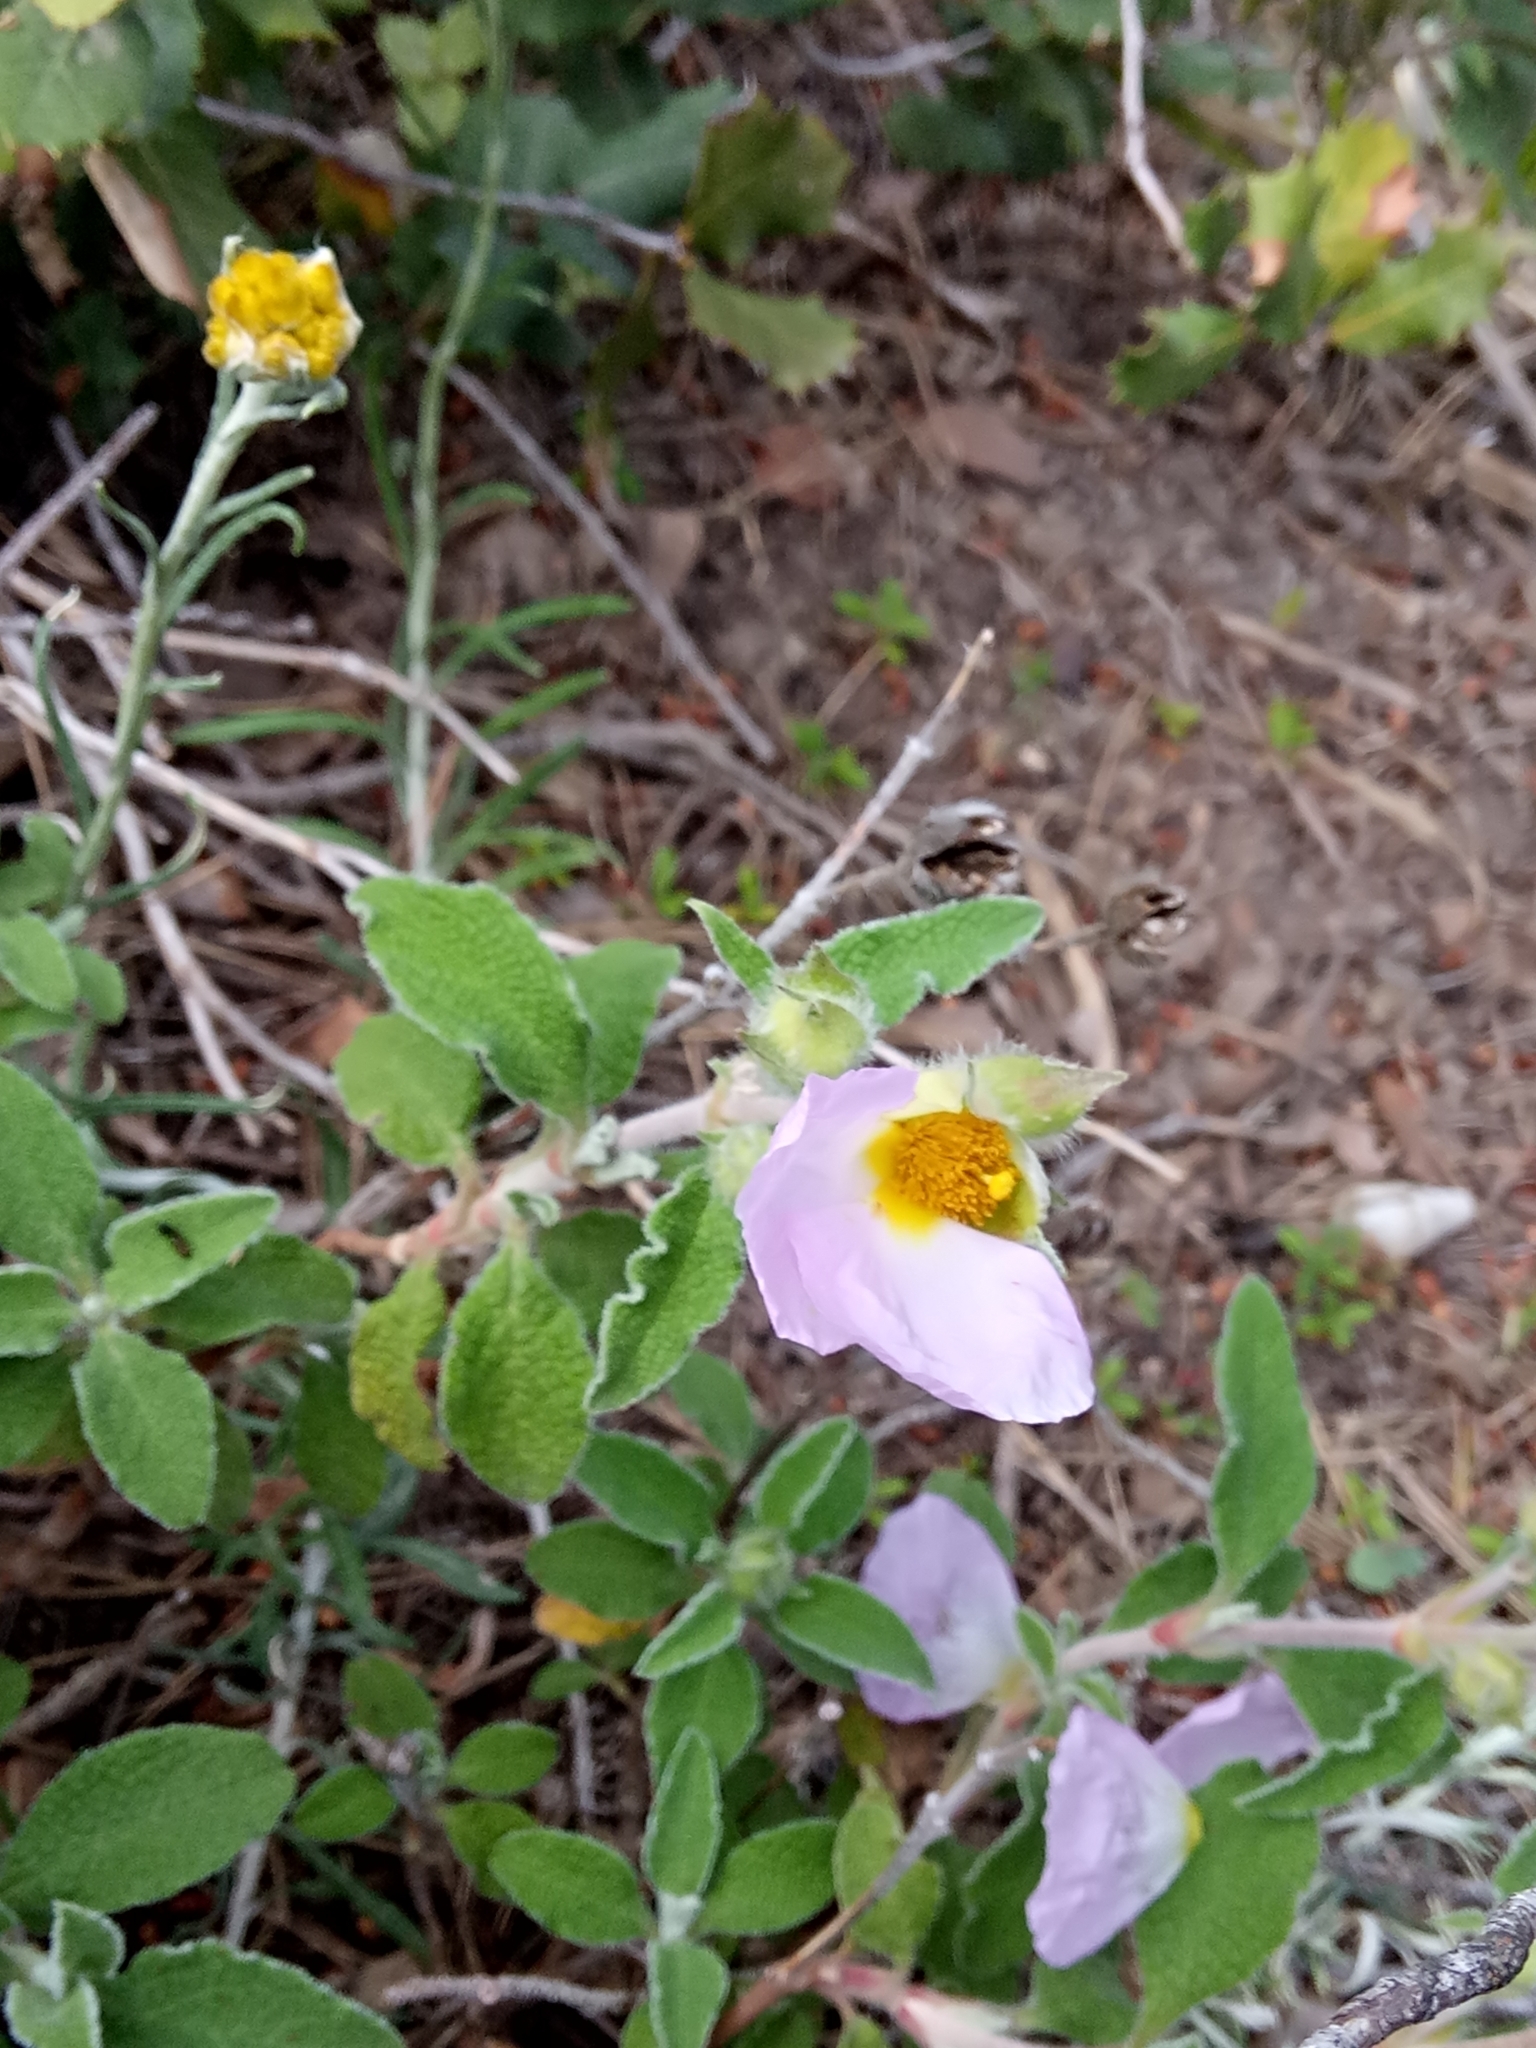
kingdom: Plantae
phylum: Tracheophyta
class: Magnoliopsida
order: Malvales
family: Cistaceae
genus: Cistus
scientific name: Cistus creticus
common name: Cretan rockrose
